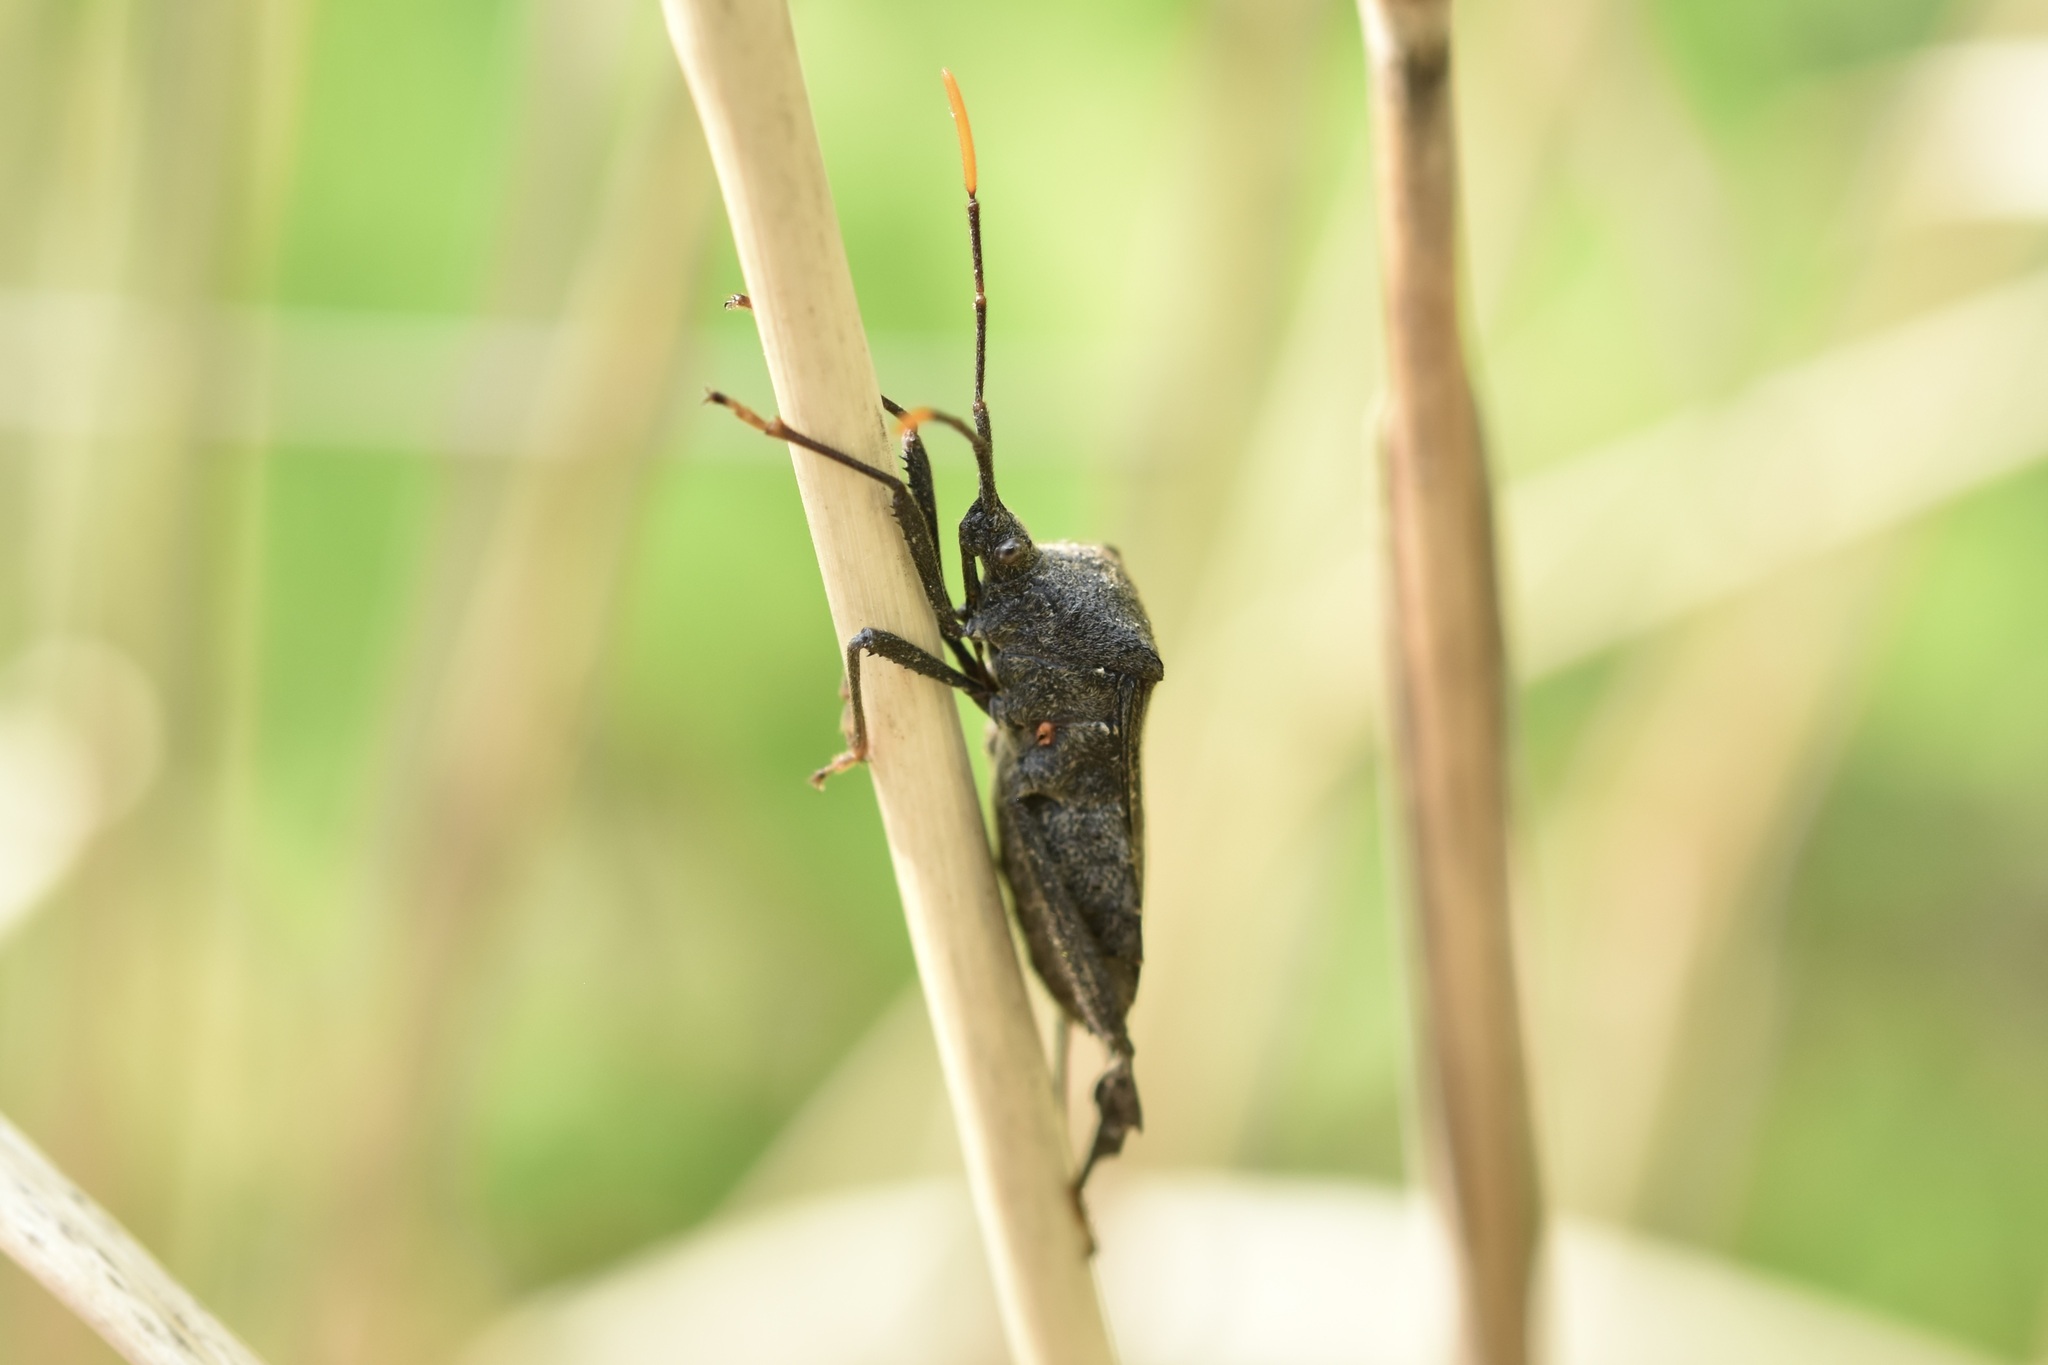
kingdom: Animalia
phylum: Arthropoda
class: Insecta
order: Hemiptera
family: Coreidae
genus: Acanthocephala
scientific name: Acanthocephala terminalis
